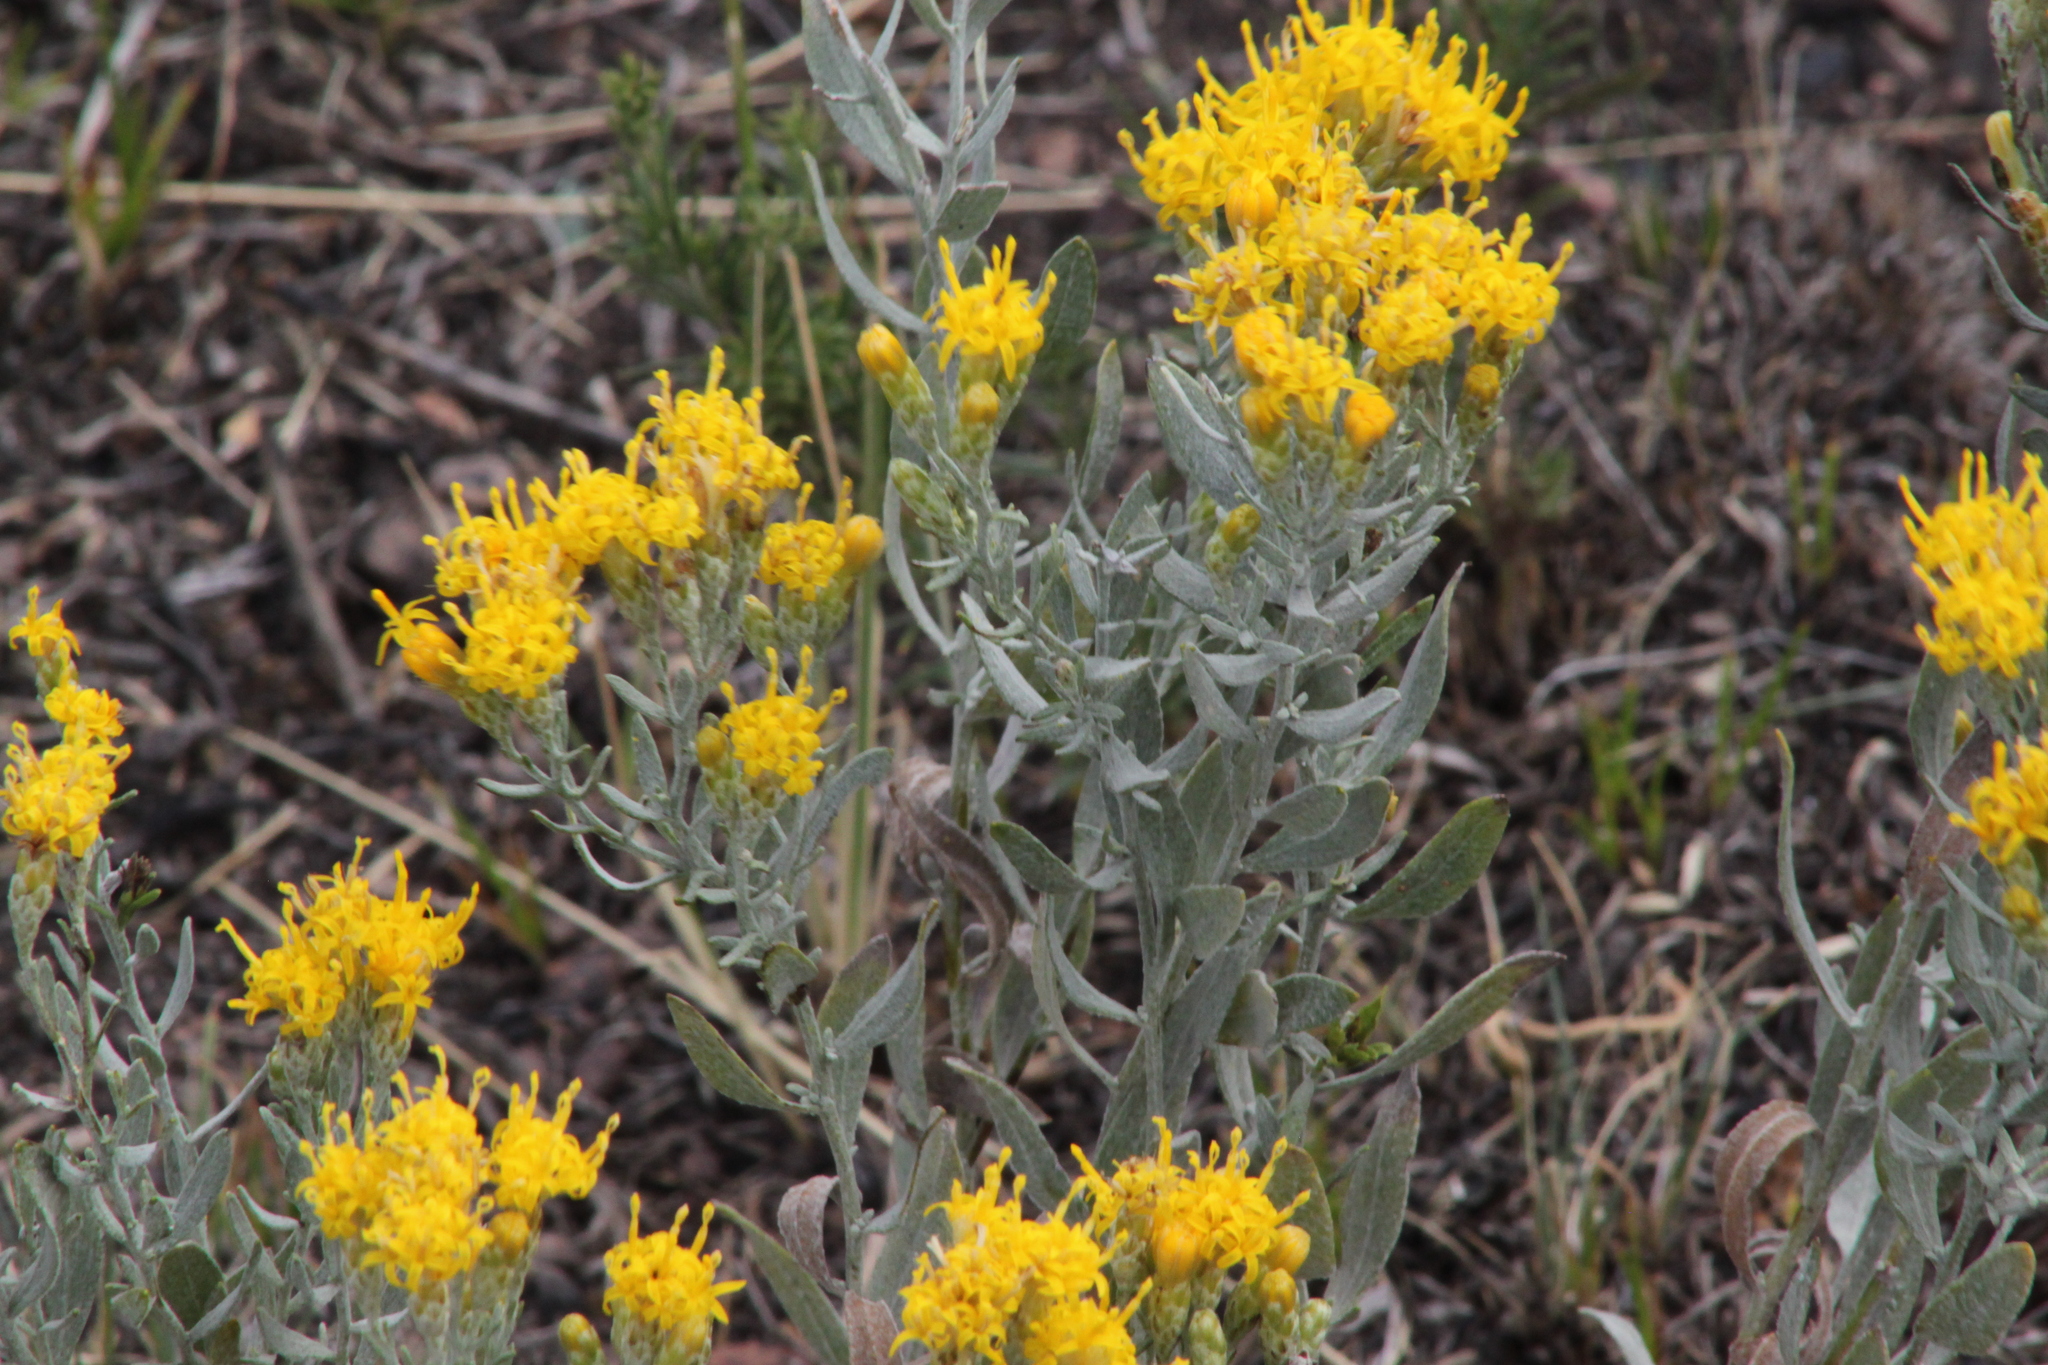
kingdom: Plantae
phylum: Tracheophyta
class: Magnoliopsida
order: Asterales
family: Asteraceae
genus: Galatella
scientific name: Galatella villosa
